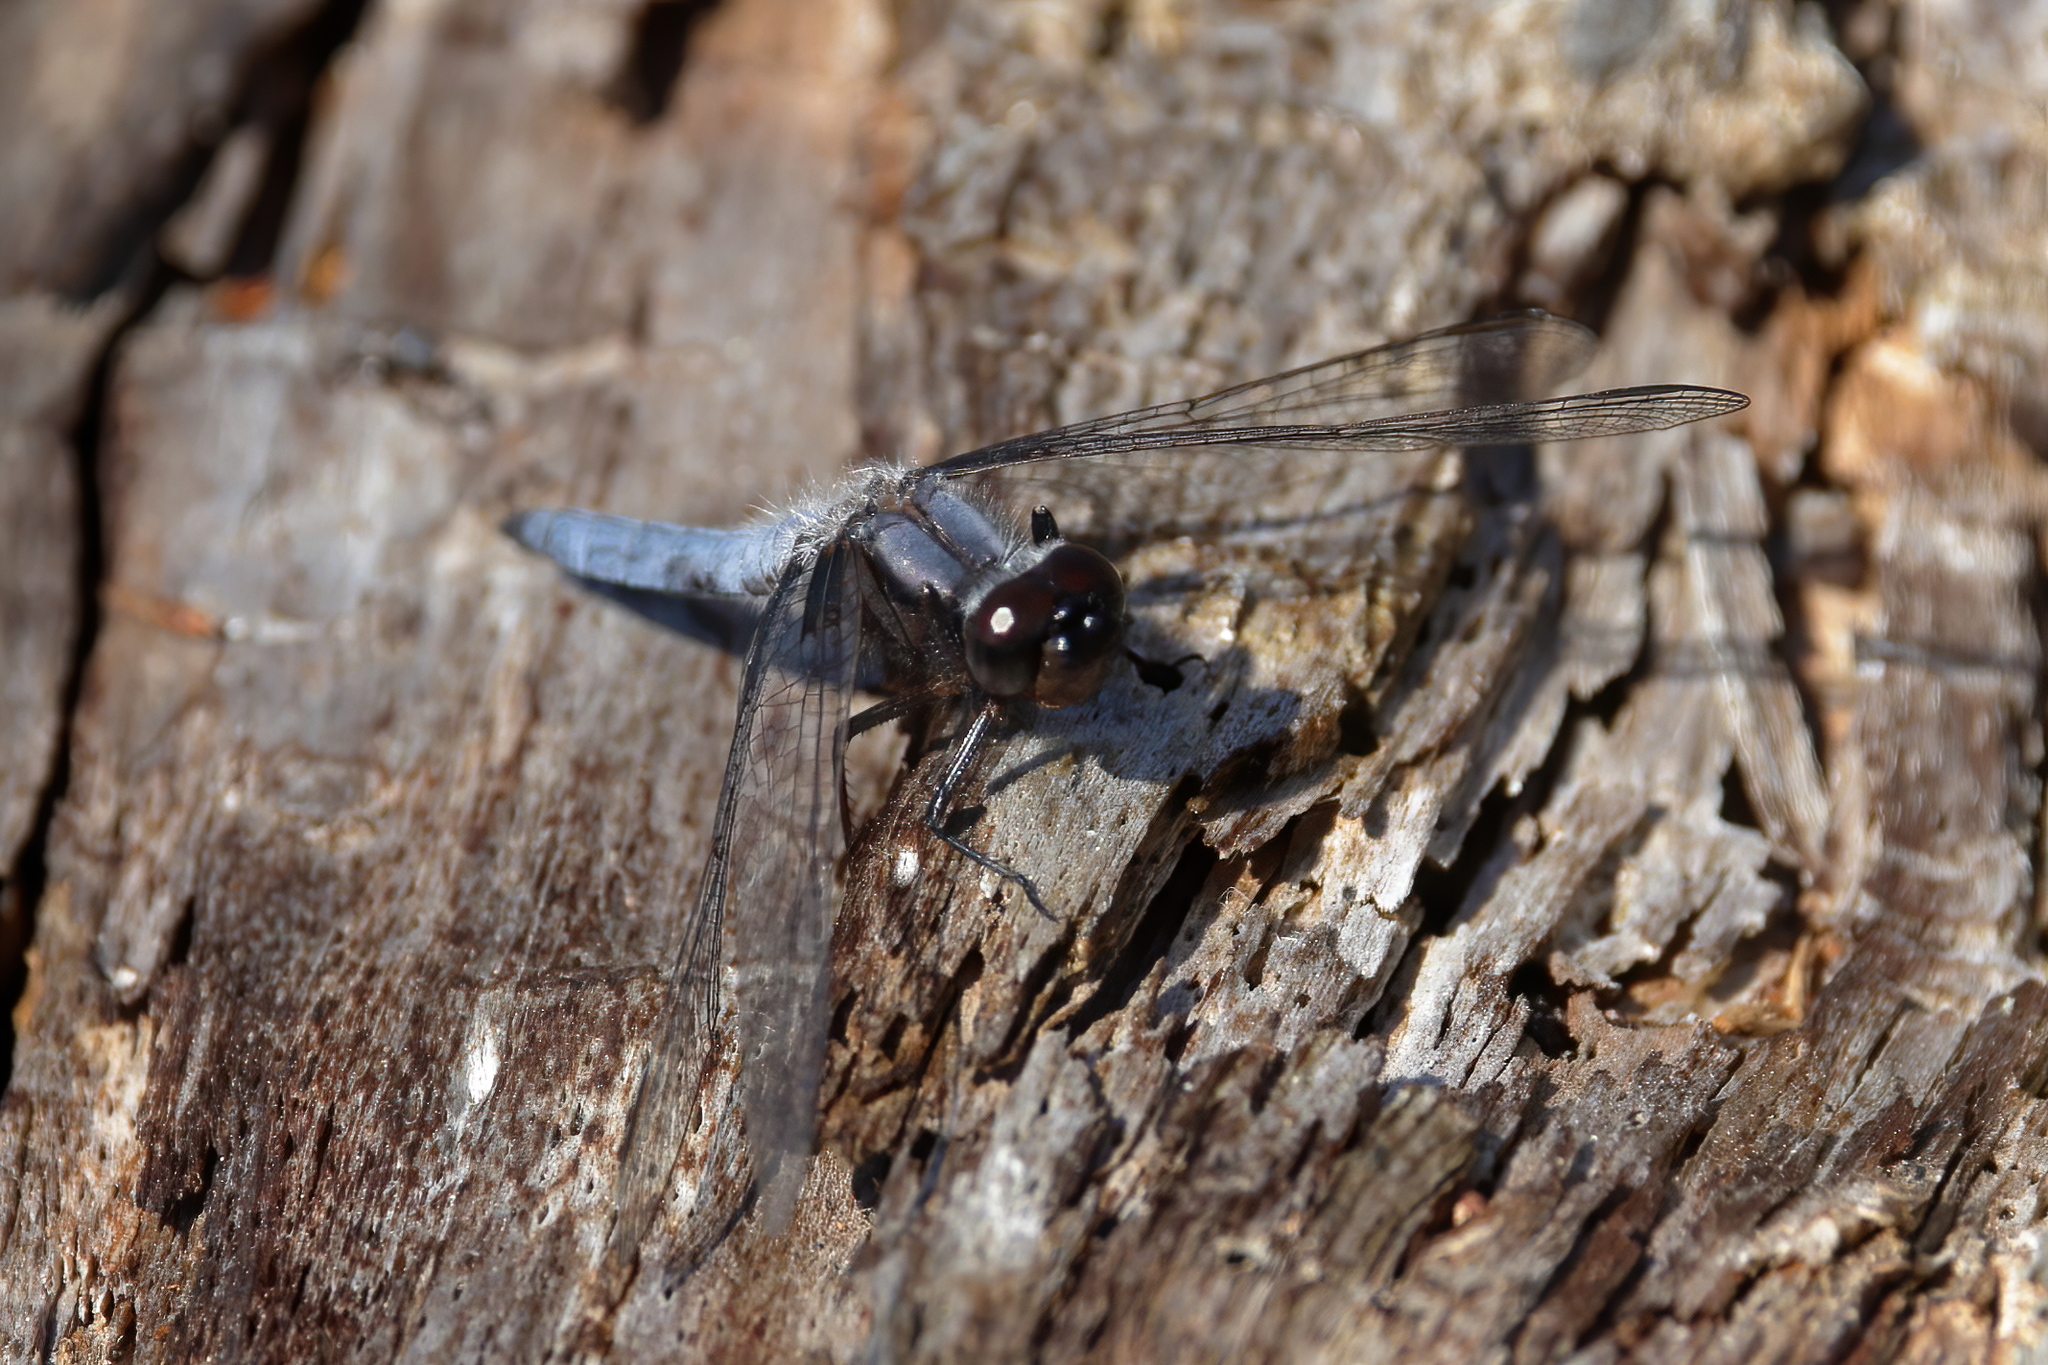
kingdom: Animalia
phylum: Arthropoda
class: Insecta
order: Odonata
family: Libellulidae
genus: Ladona
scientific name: Ladona deplanata
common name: Blue corporal
